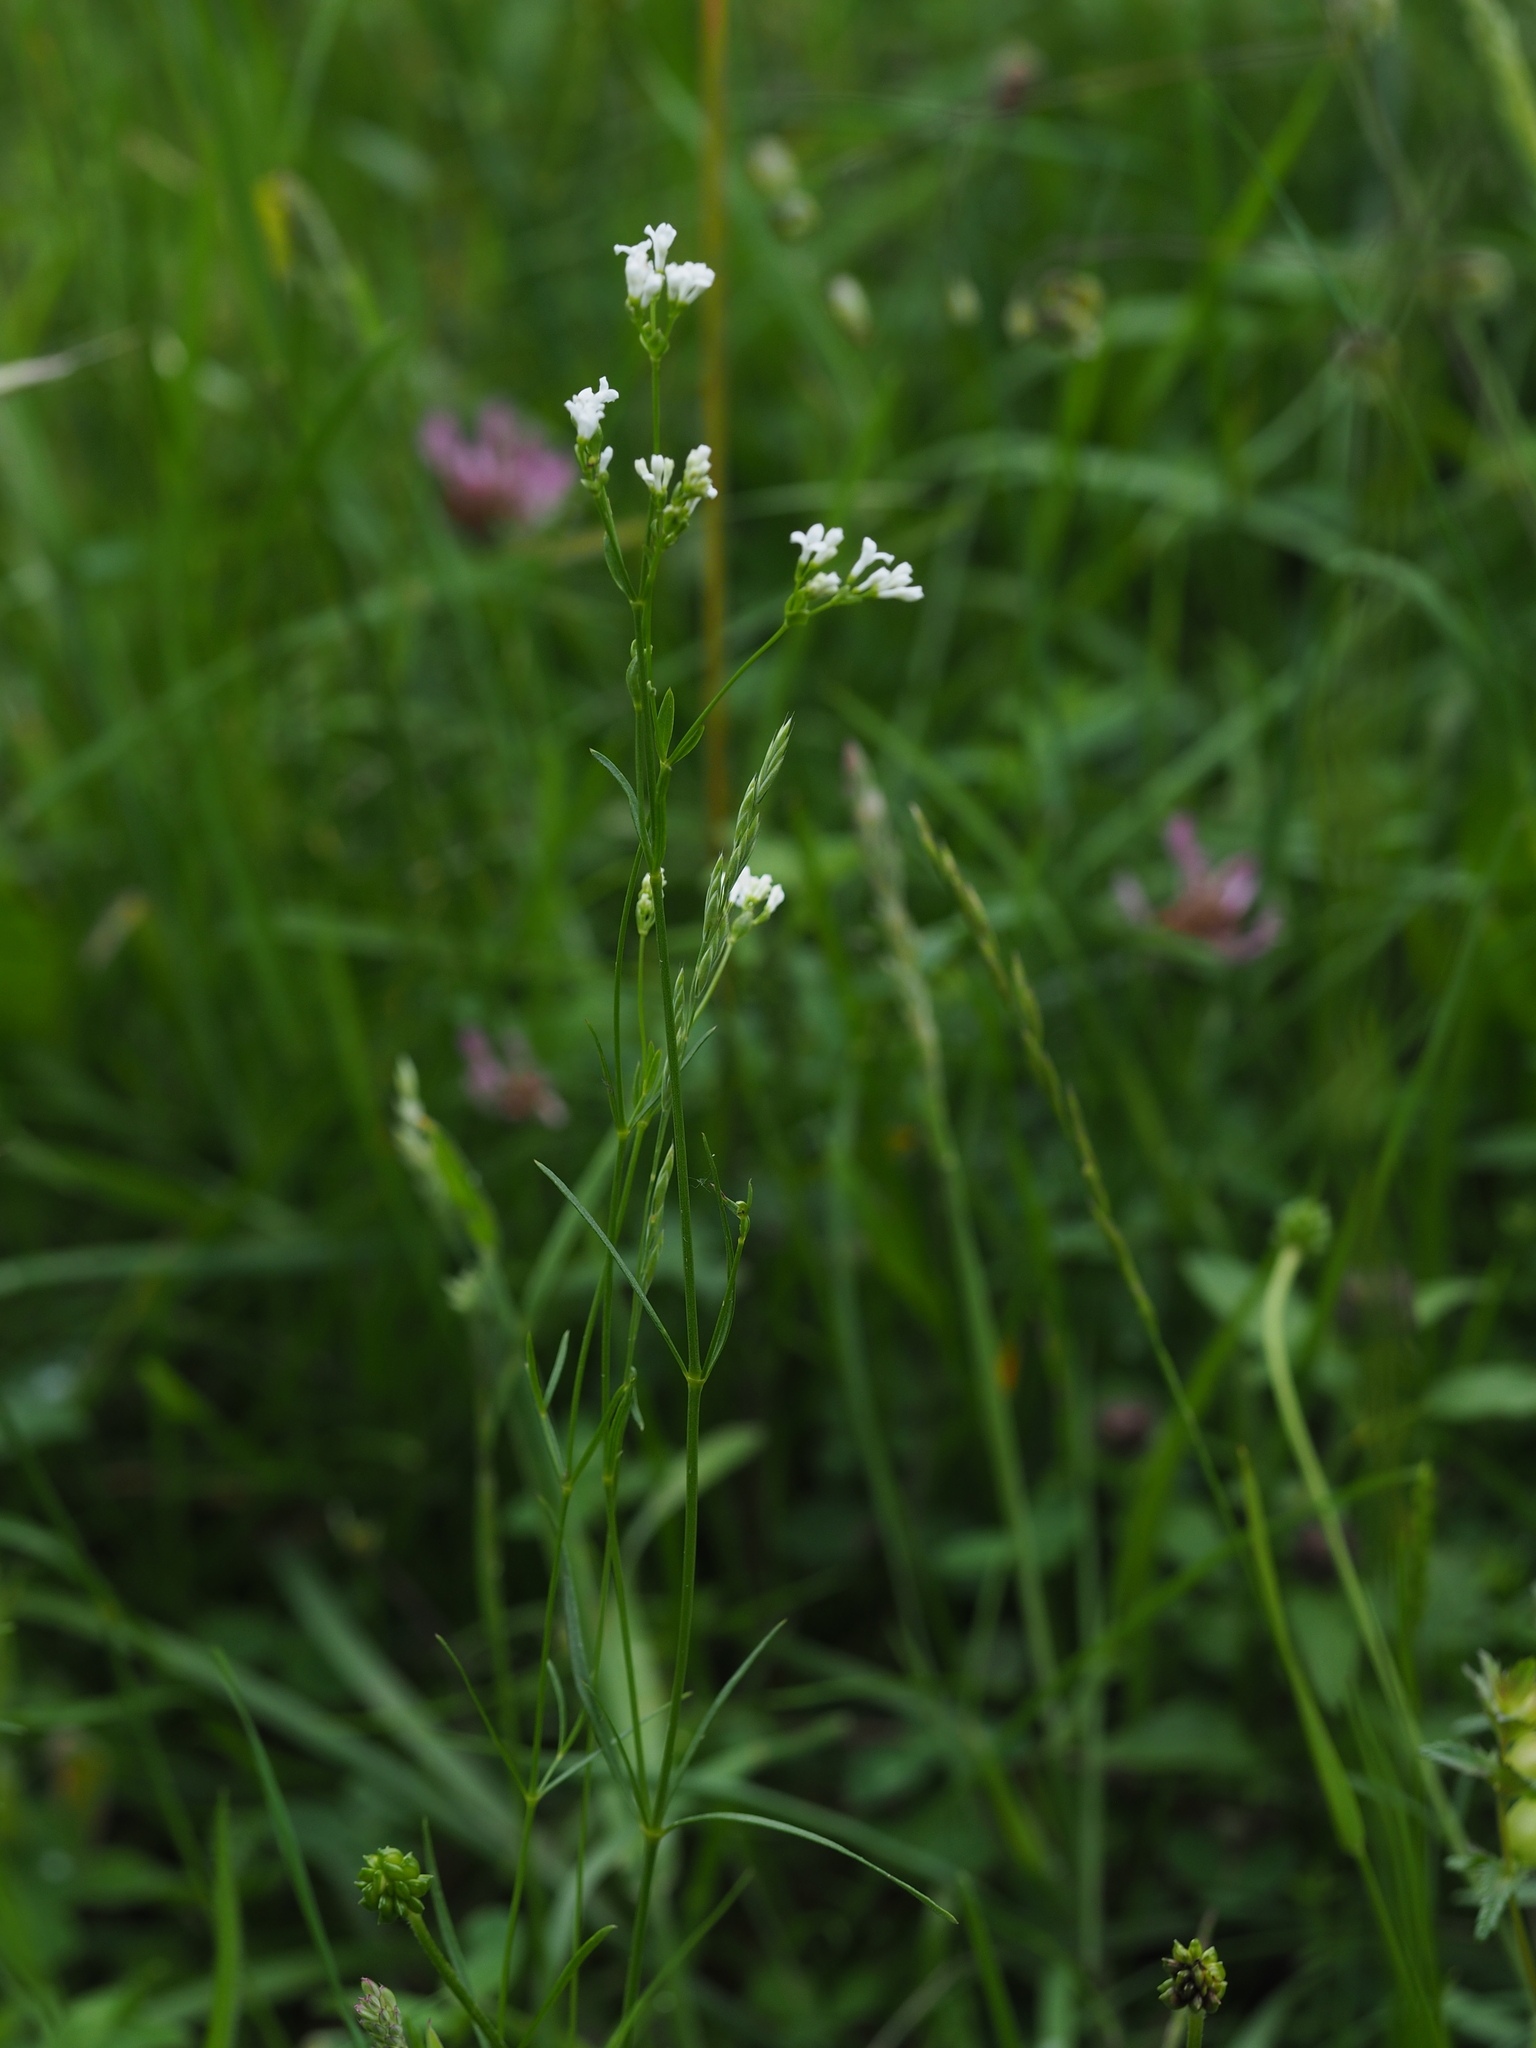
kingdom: Plantae
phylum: Tracheophyta
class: Magnoliopsida
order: Gentianales
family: Rubiaceae
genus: Asperula
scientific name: Asperula tinctoria
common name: Dyer's woodruff
